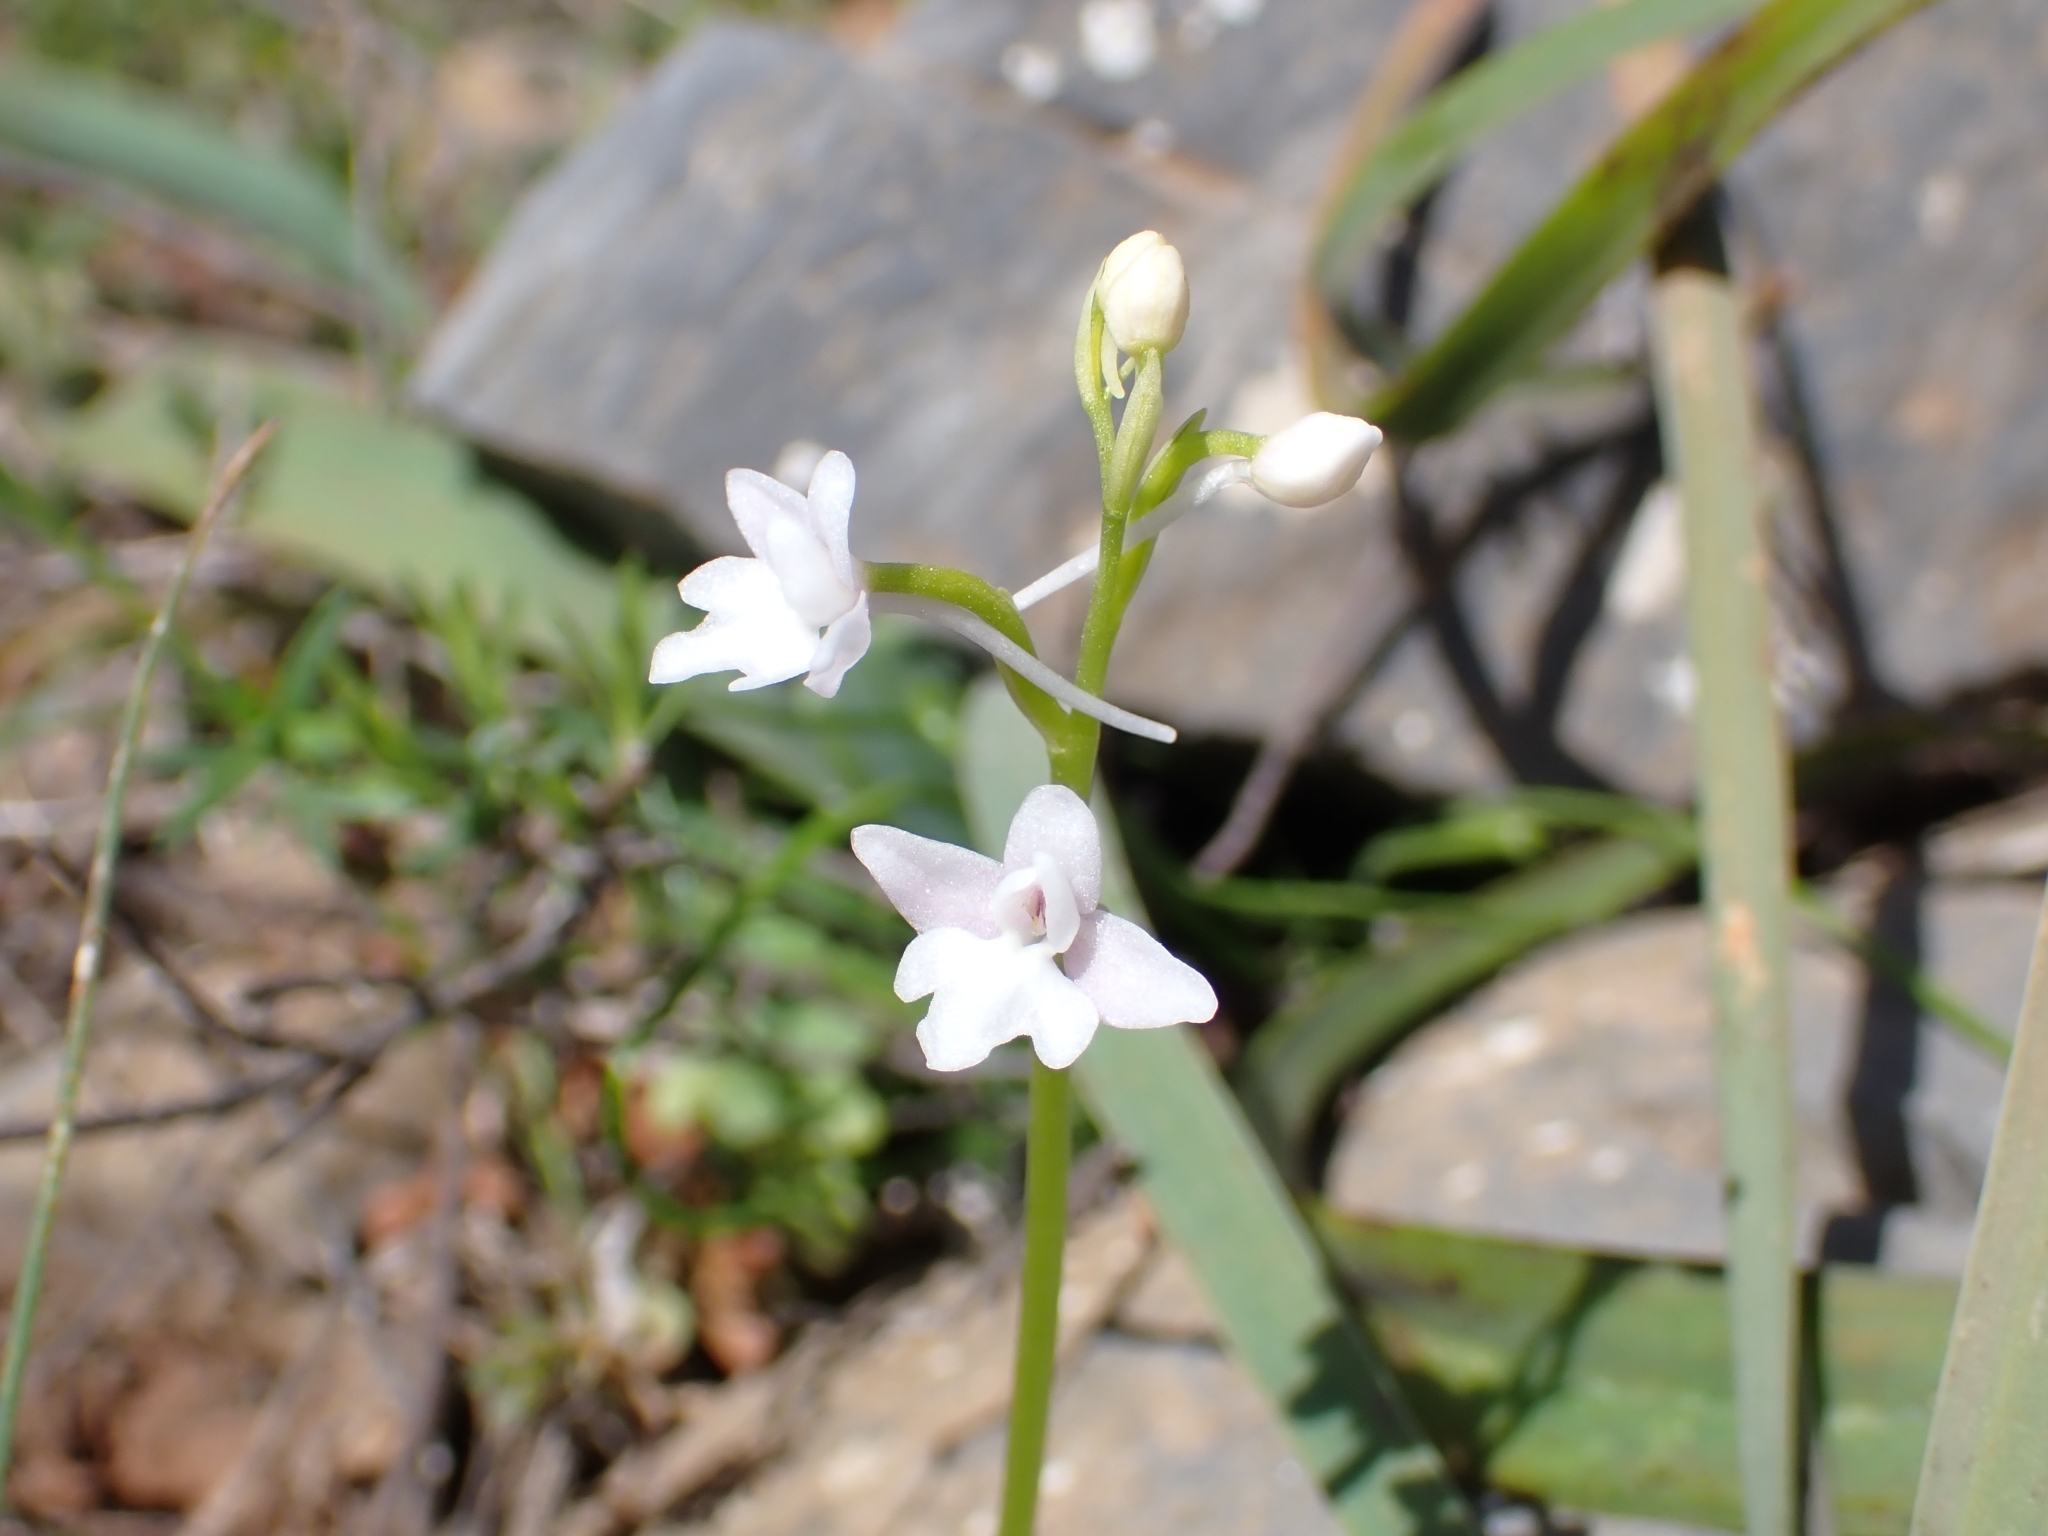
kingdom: Plantae
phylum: Tracheophyta
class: Liliopsida
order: Asparagales
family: Orchidaceae
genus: Orchis
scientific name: Orchis quadripunctata
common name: Four-spotted orchid
